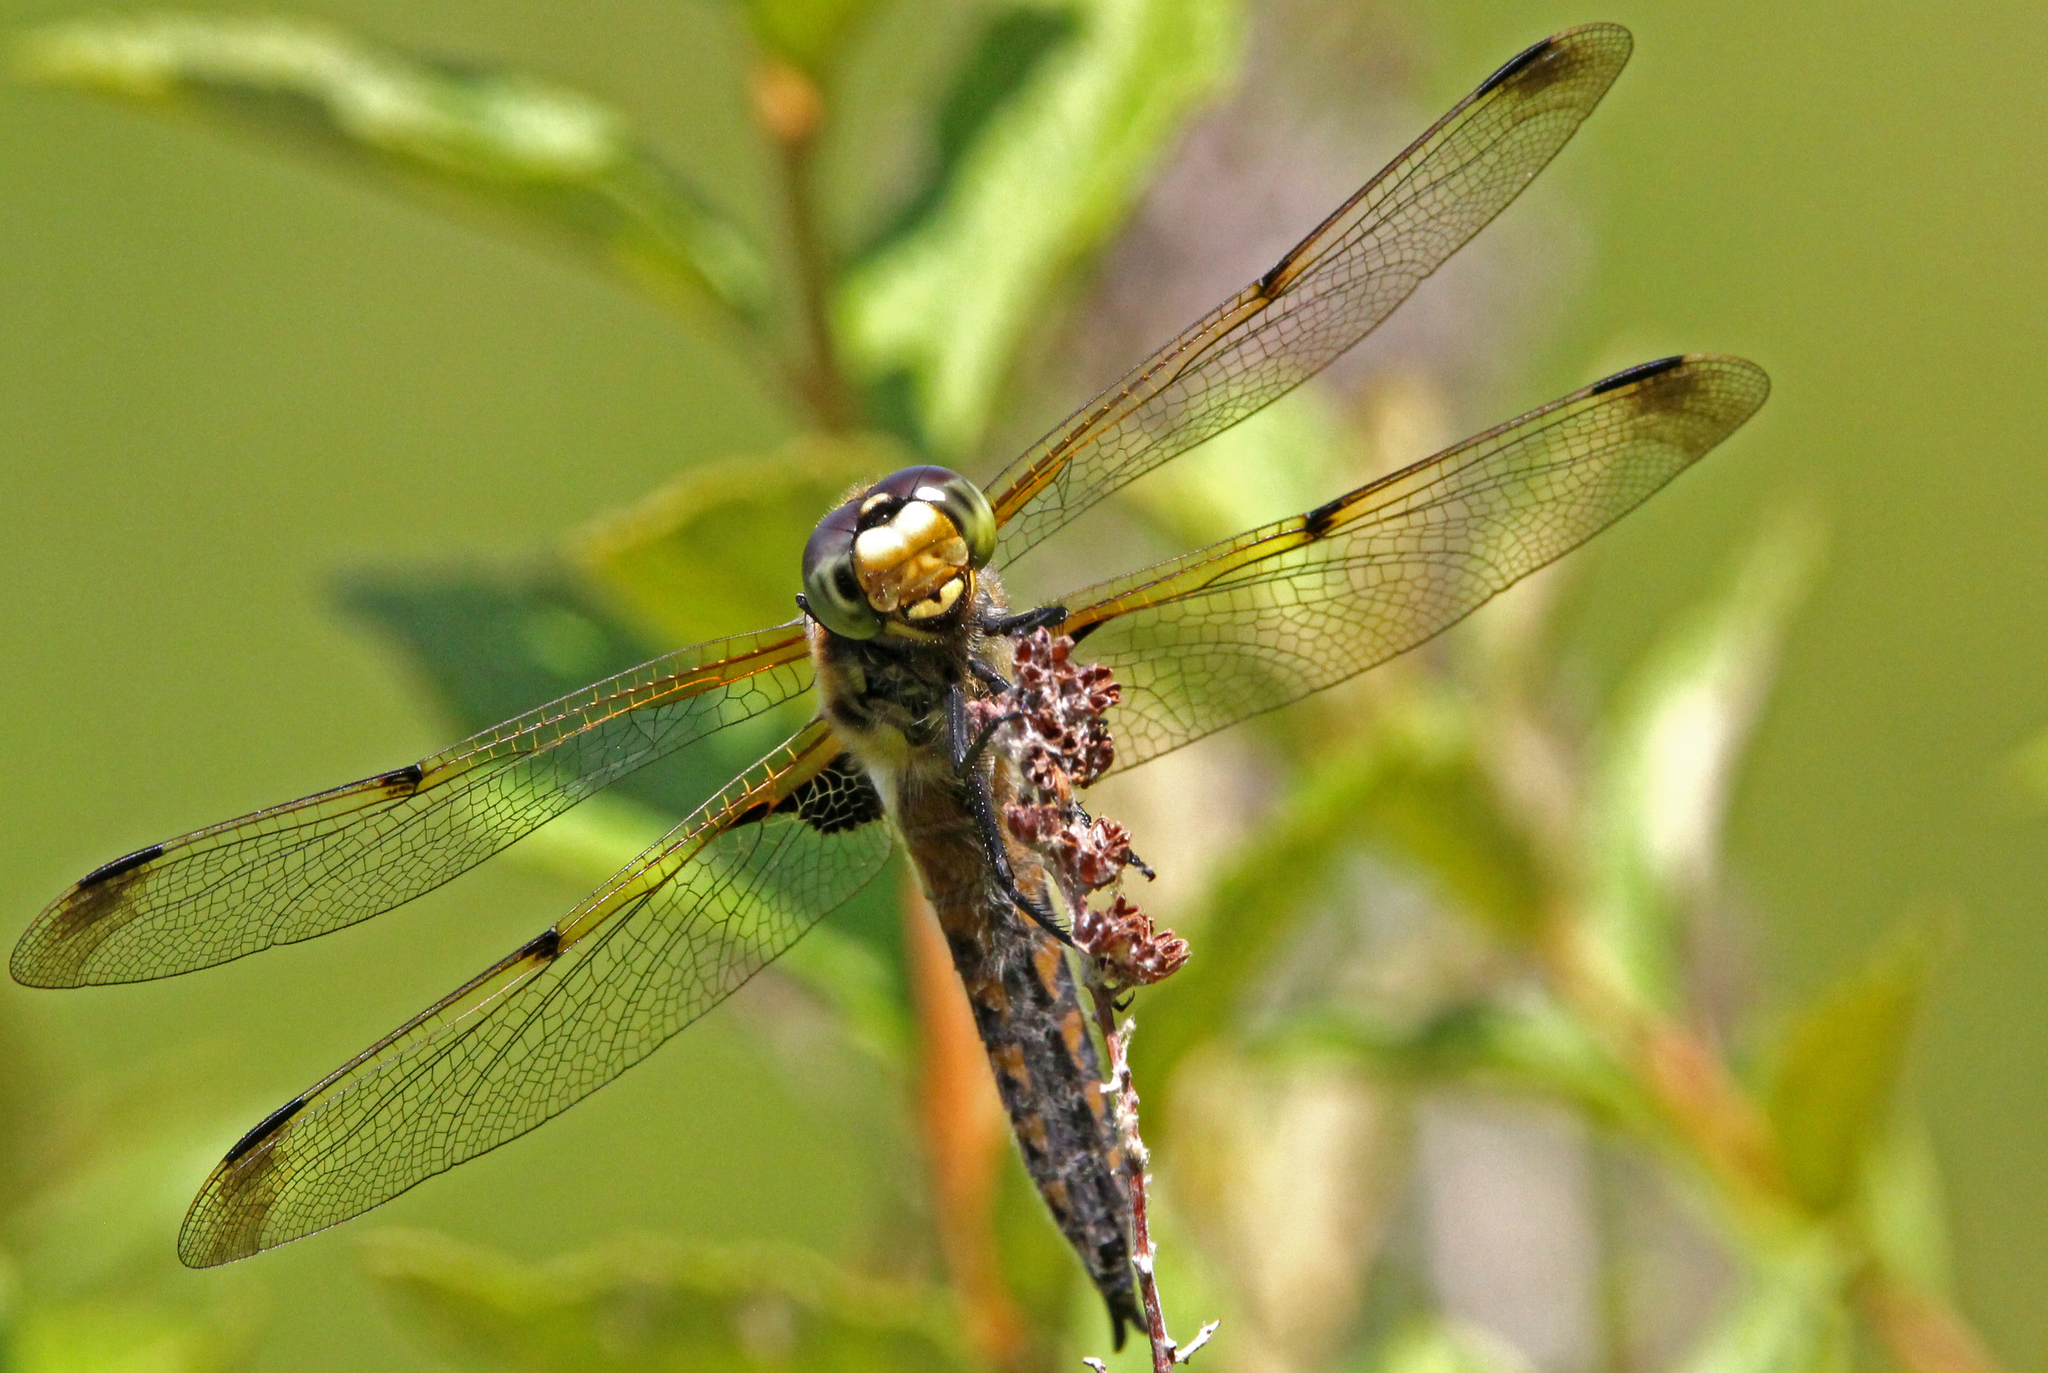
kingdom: Animalia
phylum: Arthropoda
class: Insecta
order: Odonata
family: Libellulidae
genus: Libellula
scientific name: Libellula quadrimaculata
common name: Four-spotted chaser
